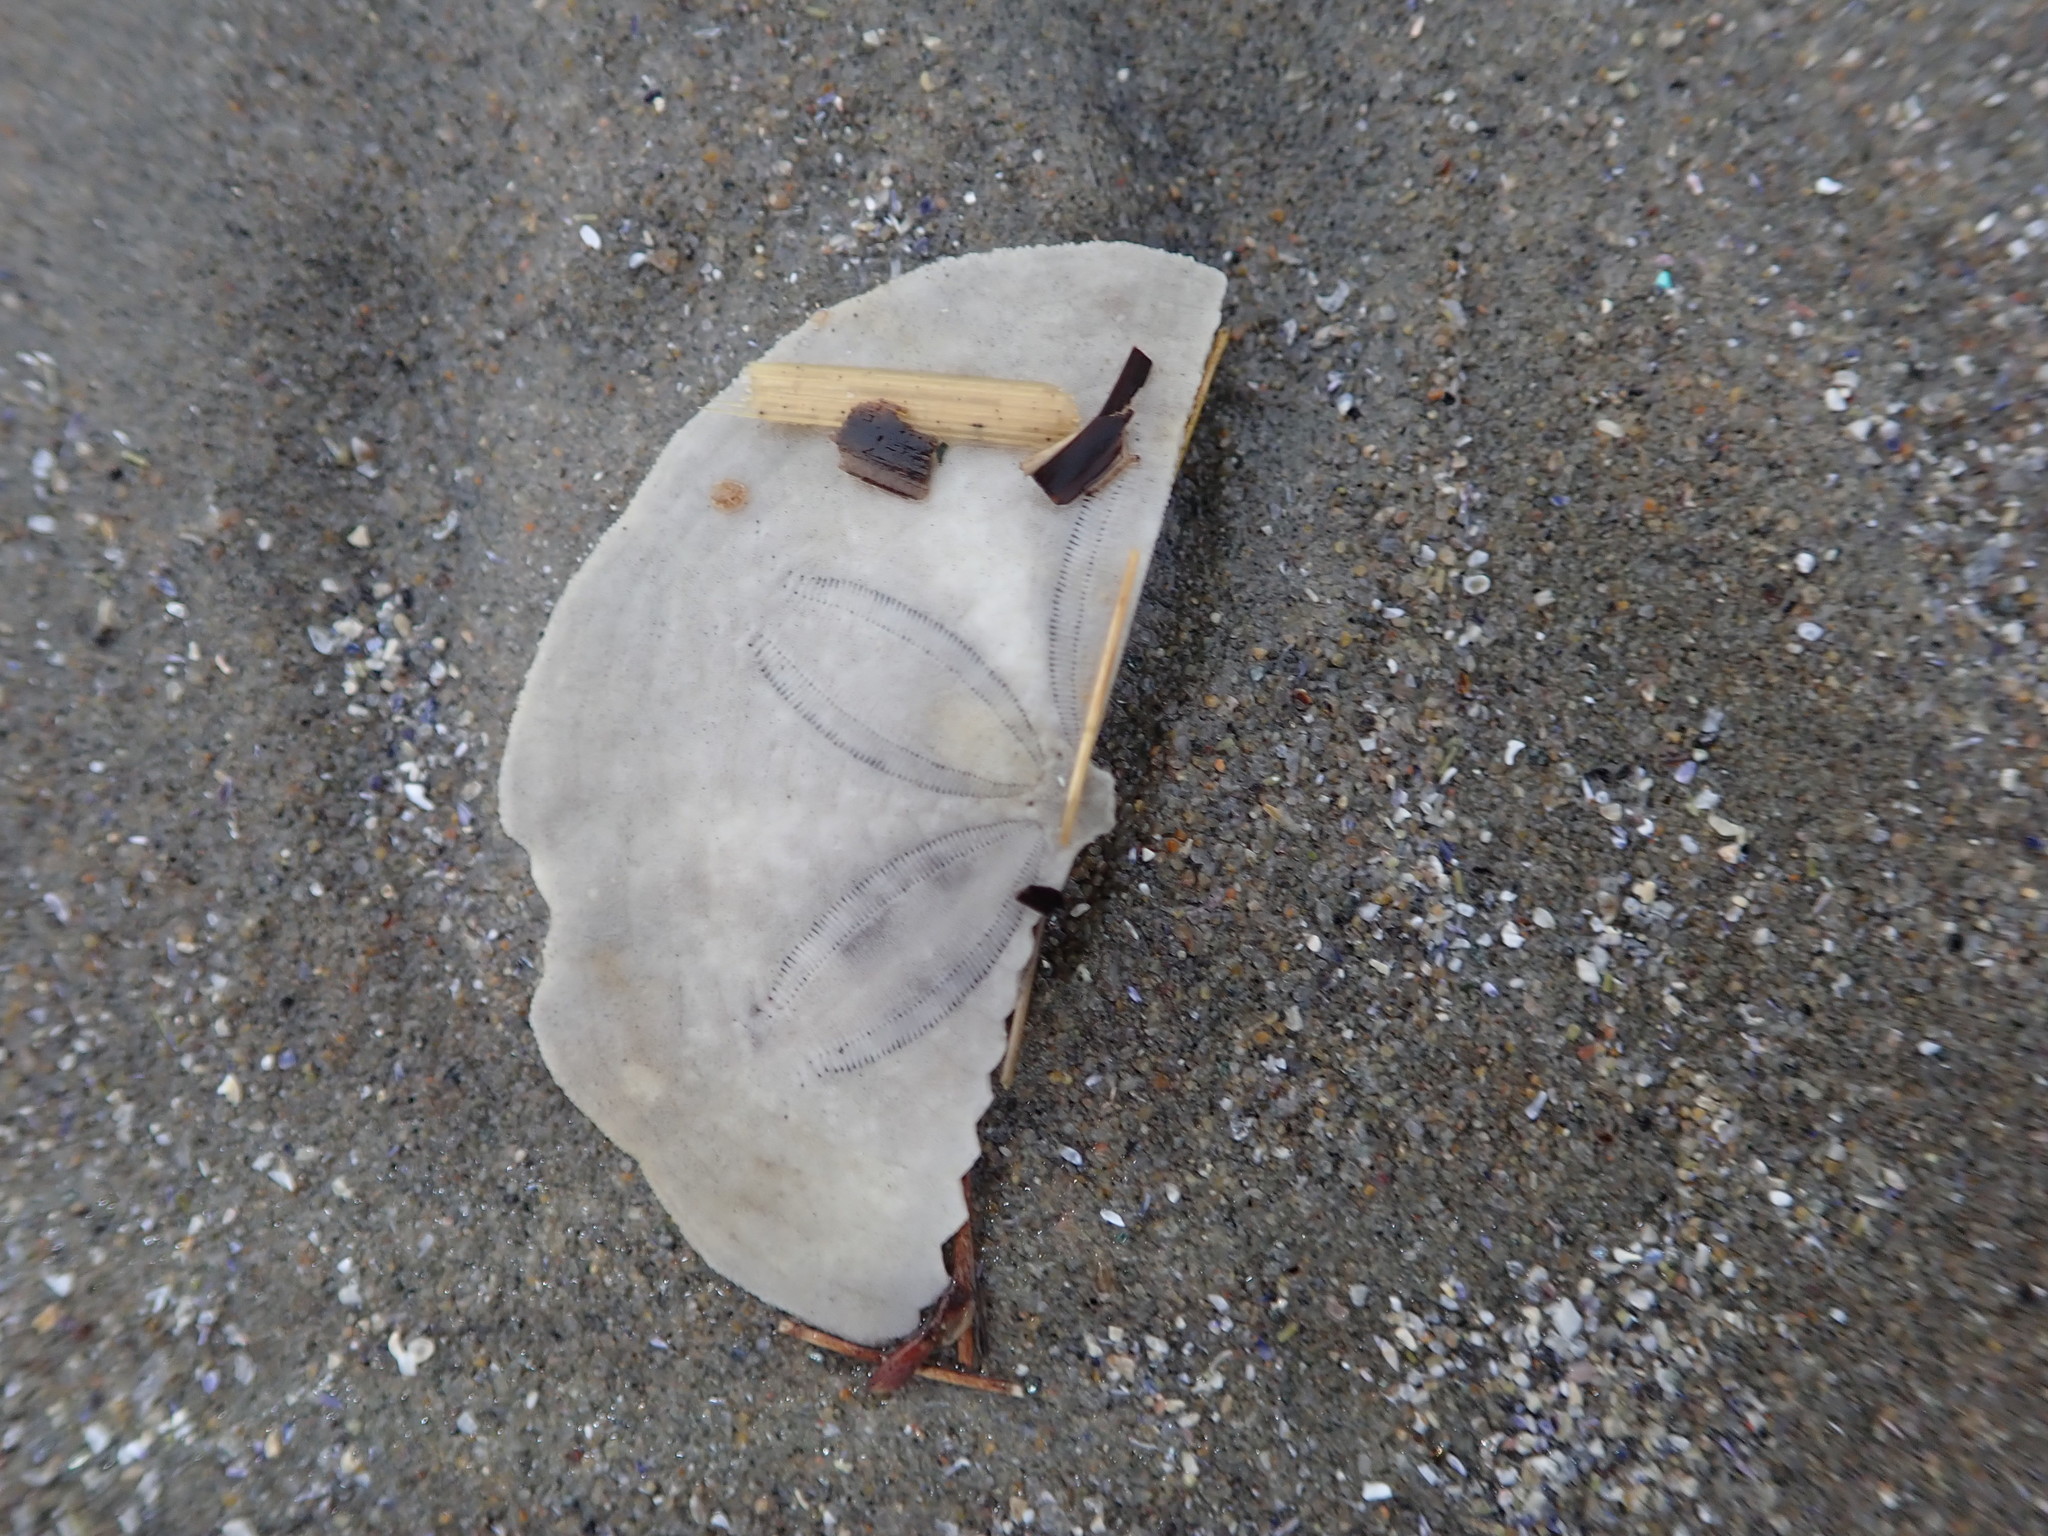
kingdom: Animalia
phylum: Echinodermata
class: Echinoidea
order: Echinolampadacea
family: Echinarachniidae
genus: Echinarachnius
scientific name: Echinarachnius parma
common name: Common sand dollar
